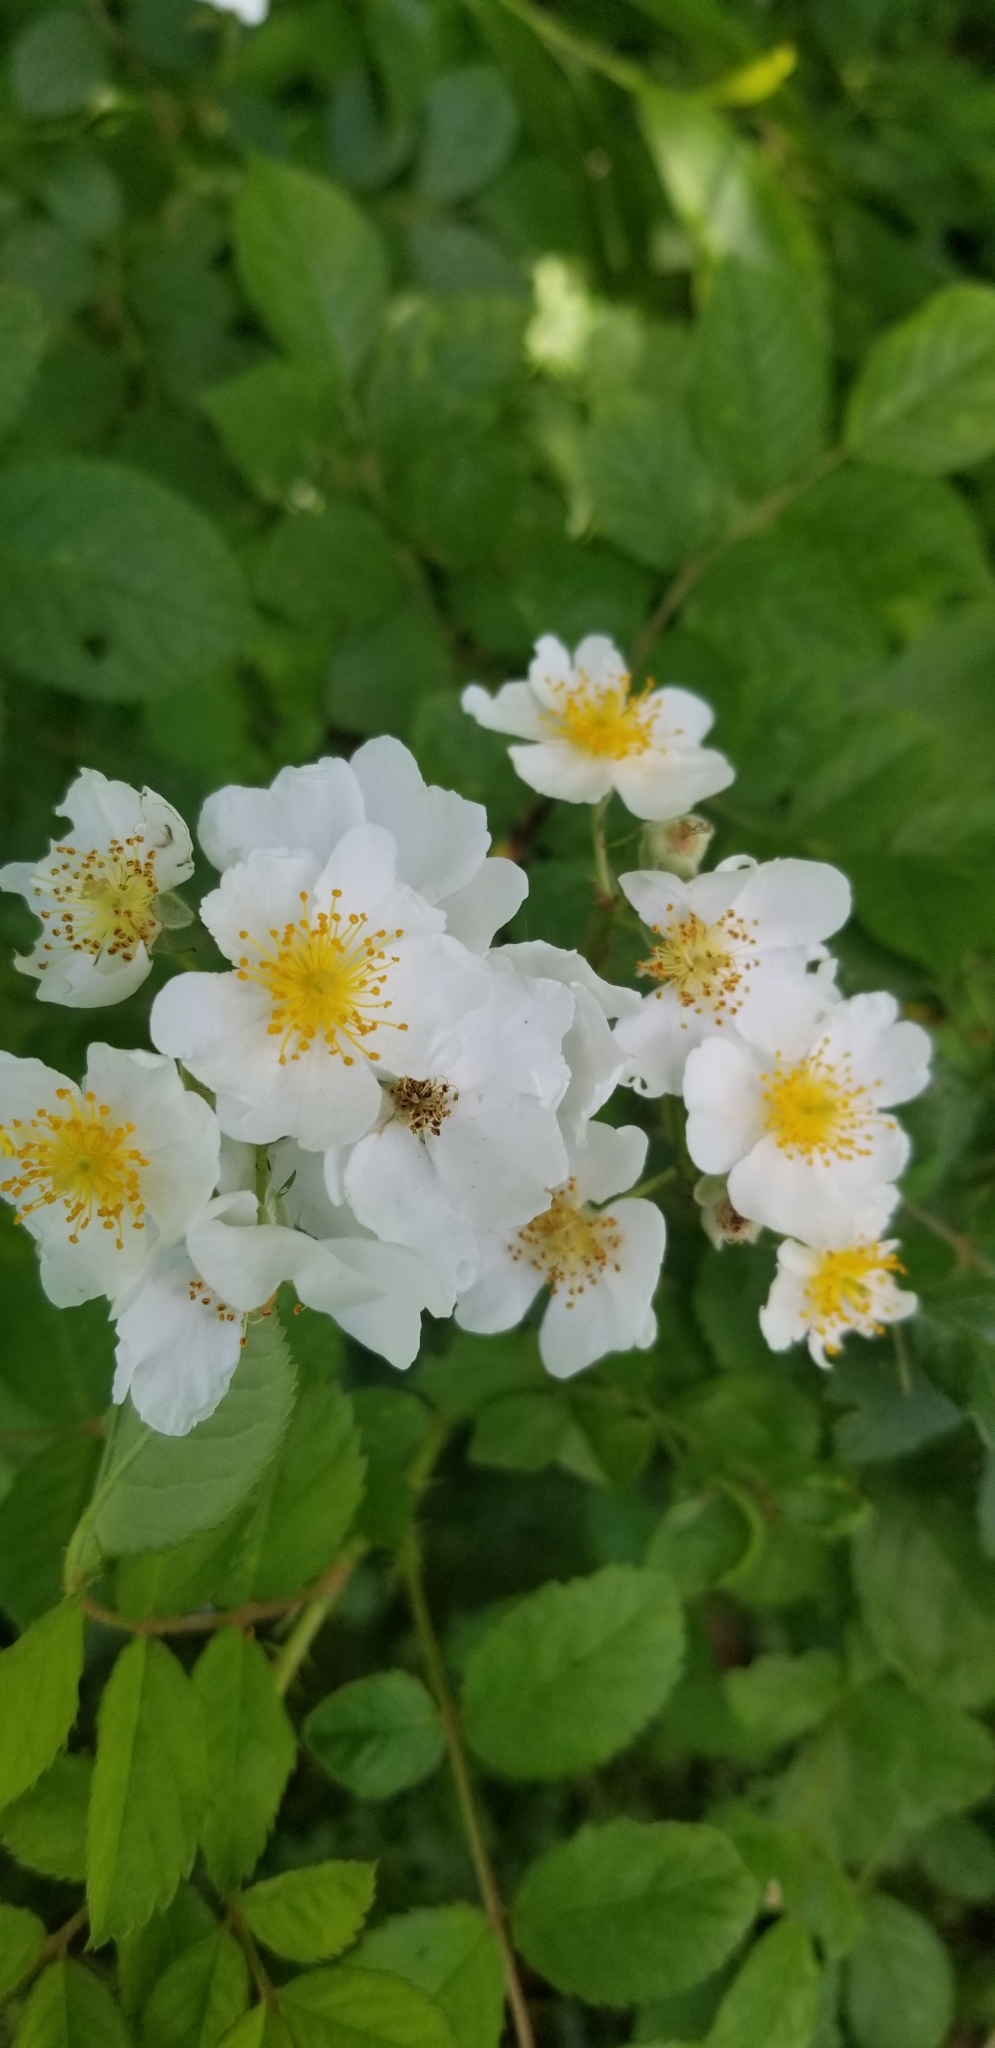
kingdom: Plantae
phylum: Tracheophyta
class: Magnoliopsida
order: Rosales
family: Rosaceae
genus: Rosa
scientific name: Rosa multiflora
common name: Multiflora rose
